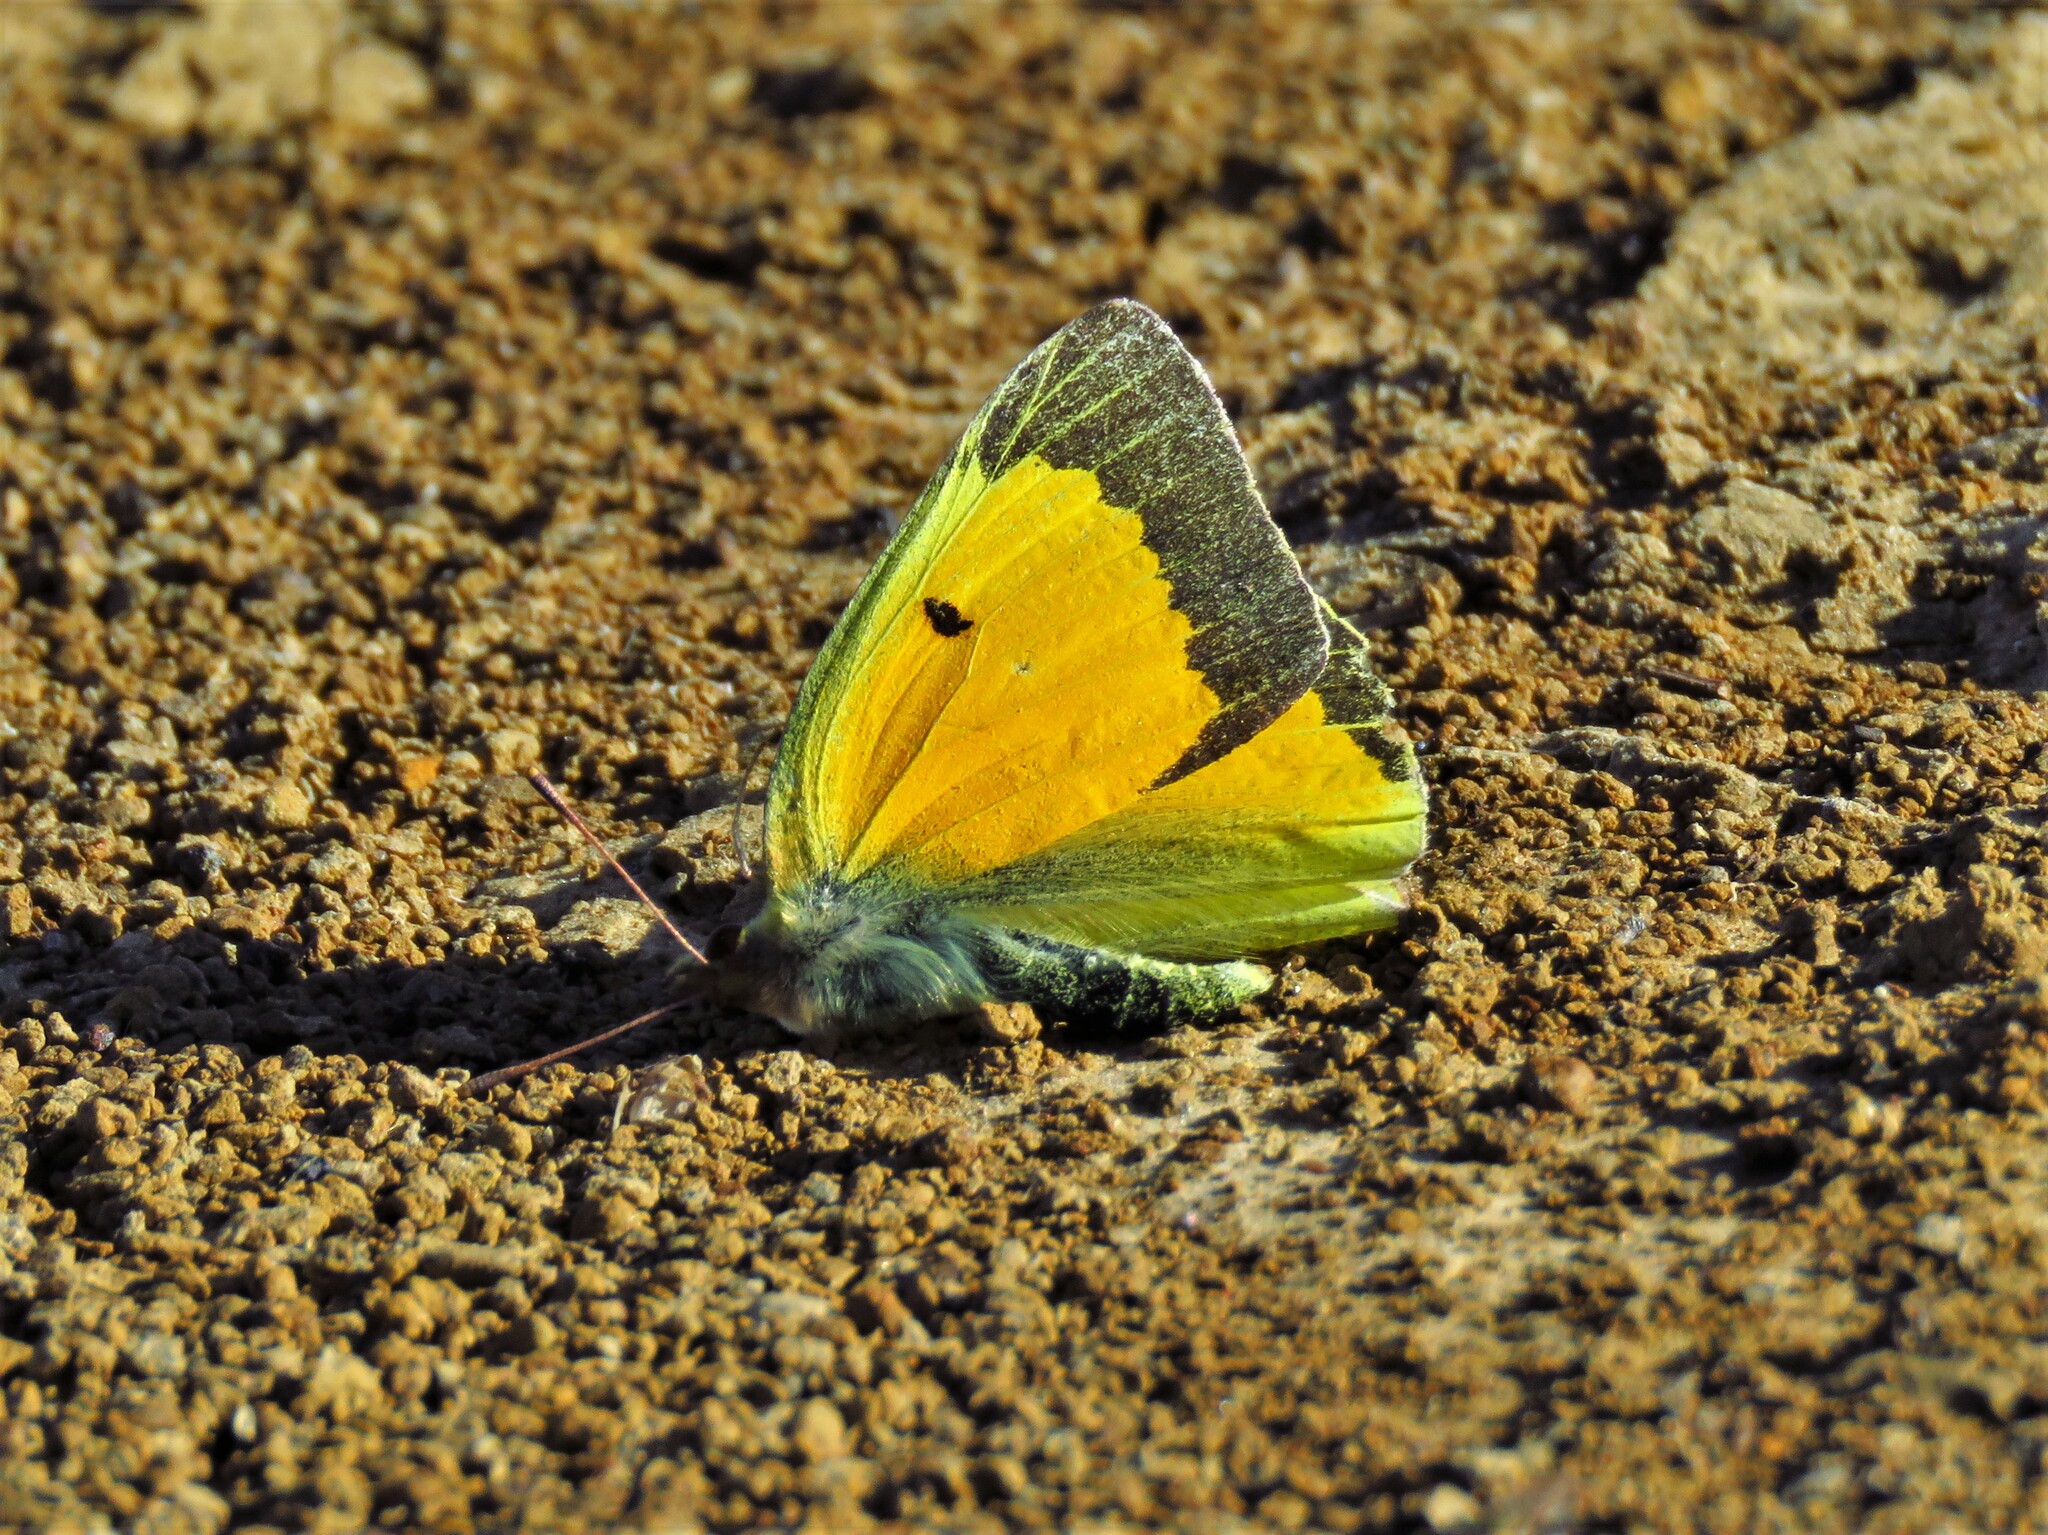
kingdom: Animalia
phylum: Arthropoda
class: Insecta
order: Lepidoptera
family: Pieridae
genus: Colias
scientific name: Colias eurytheme
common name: Alfalfa butterfly
